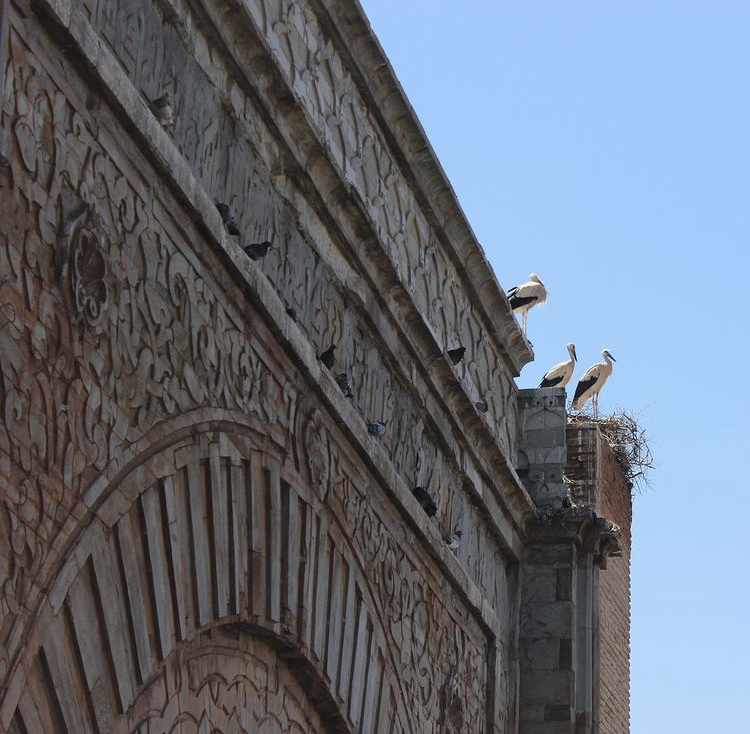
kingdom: Animalia
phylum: Chordata
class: Aves
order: Ciconiiformes
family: Ciconiidae
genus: Ciconia
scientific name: Ciconia ciconia
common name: White stork
